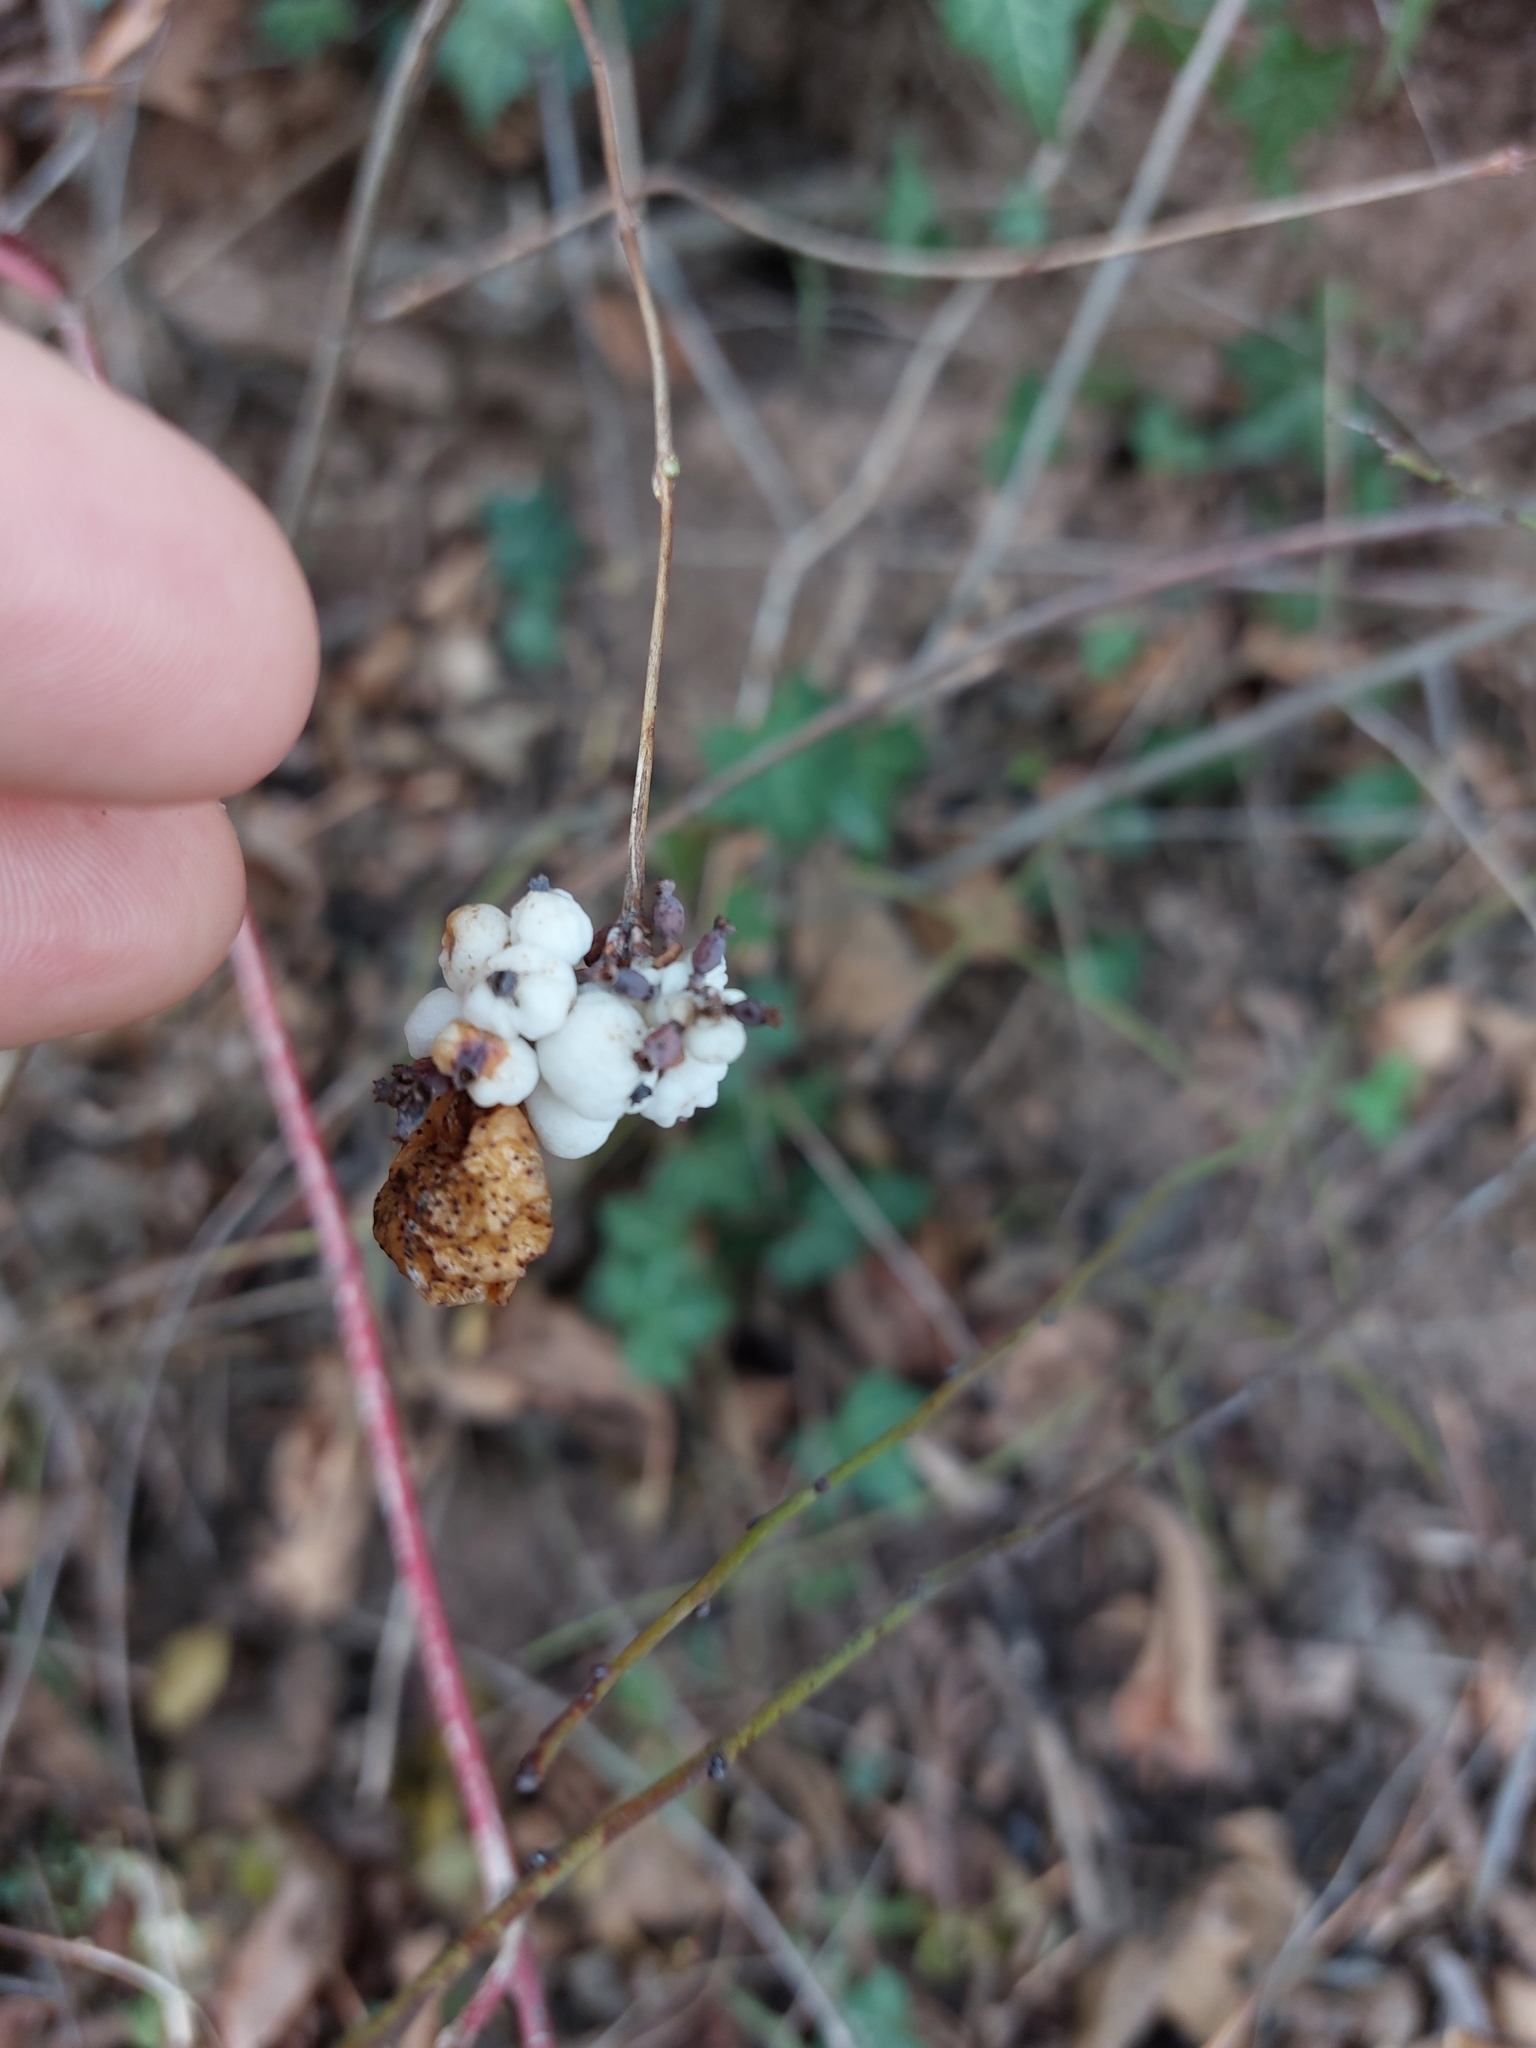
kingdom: Plantae
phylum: Tracheophyta
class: Magnoliopsida
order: Dipsacales
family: Caprifoliaceae
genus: Symphoricarpos
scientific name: Symphoricarpos albus
